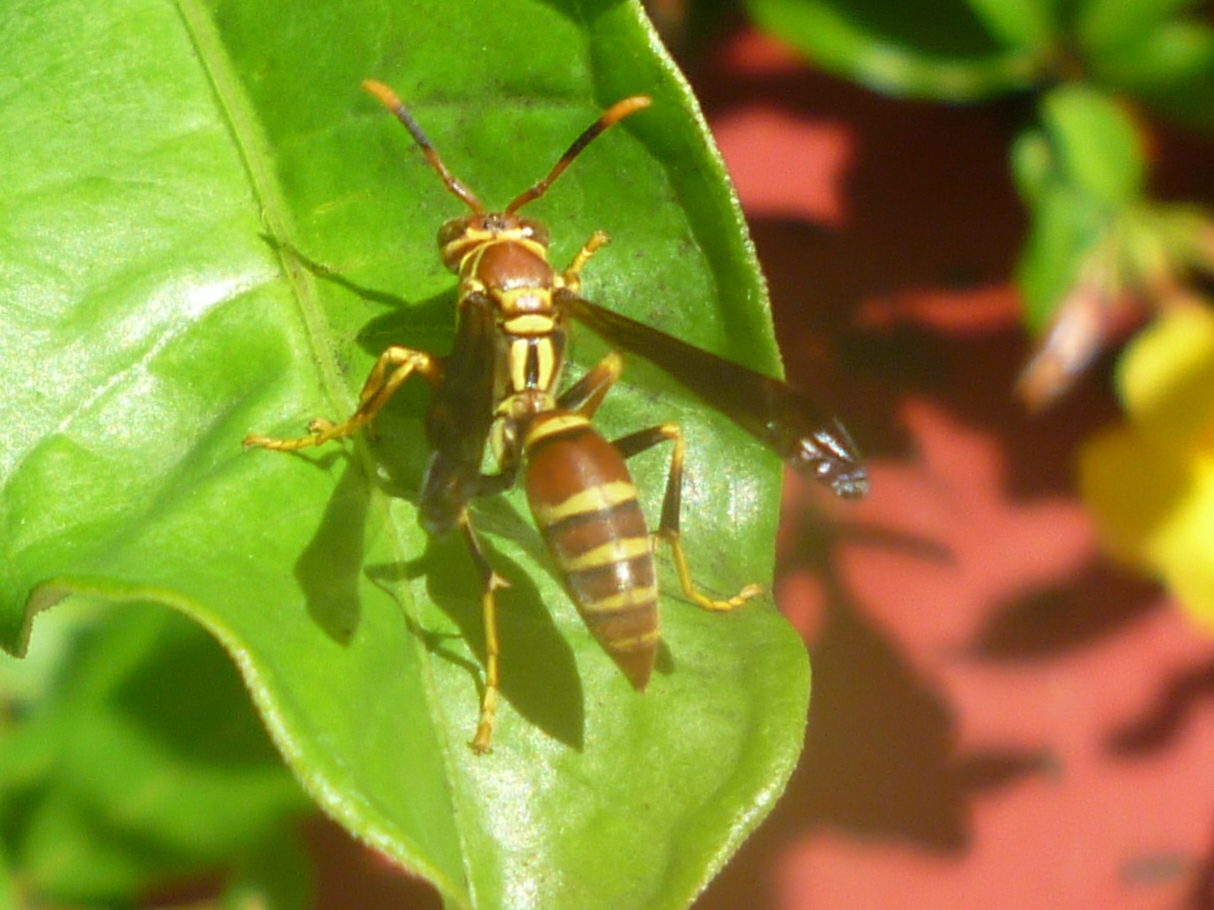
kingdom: Animalia
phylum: Arthropoda
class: Insecta
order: Hymenoptera
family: Eumenidae
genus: Polistes
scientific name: Polistes exclamans
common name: Paper wasp
